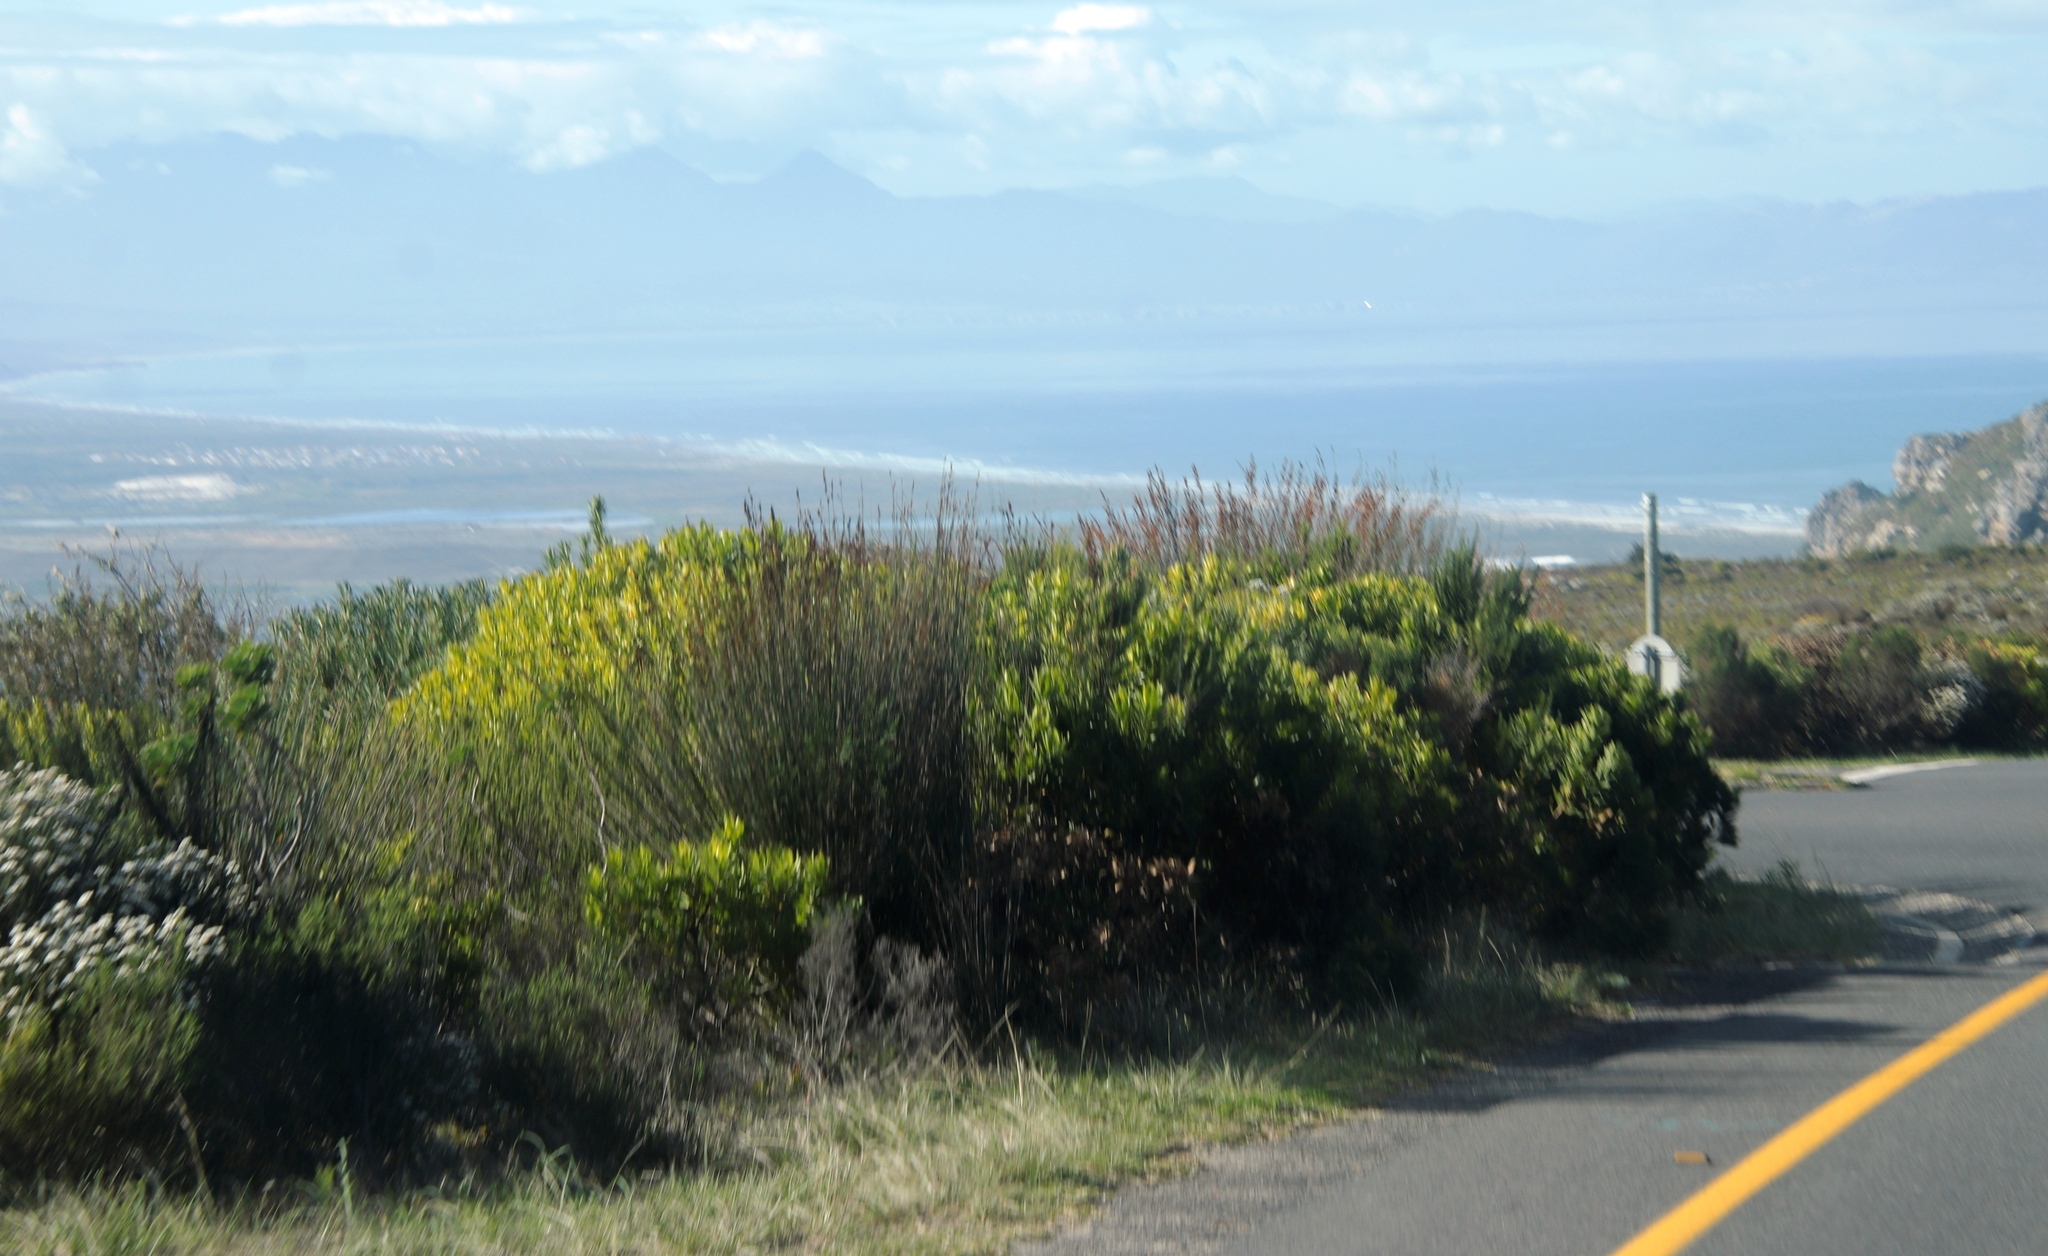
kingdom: Plantae
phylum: Tracheophyta
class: Liliopsida
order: Poales
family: Restionaceae
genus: Thamnochortus
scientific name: Thamnochortus insignis
